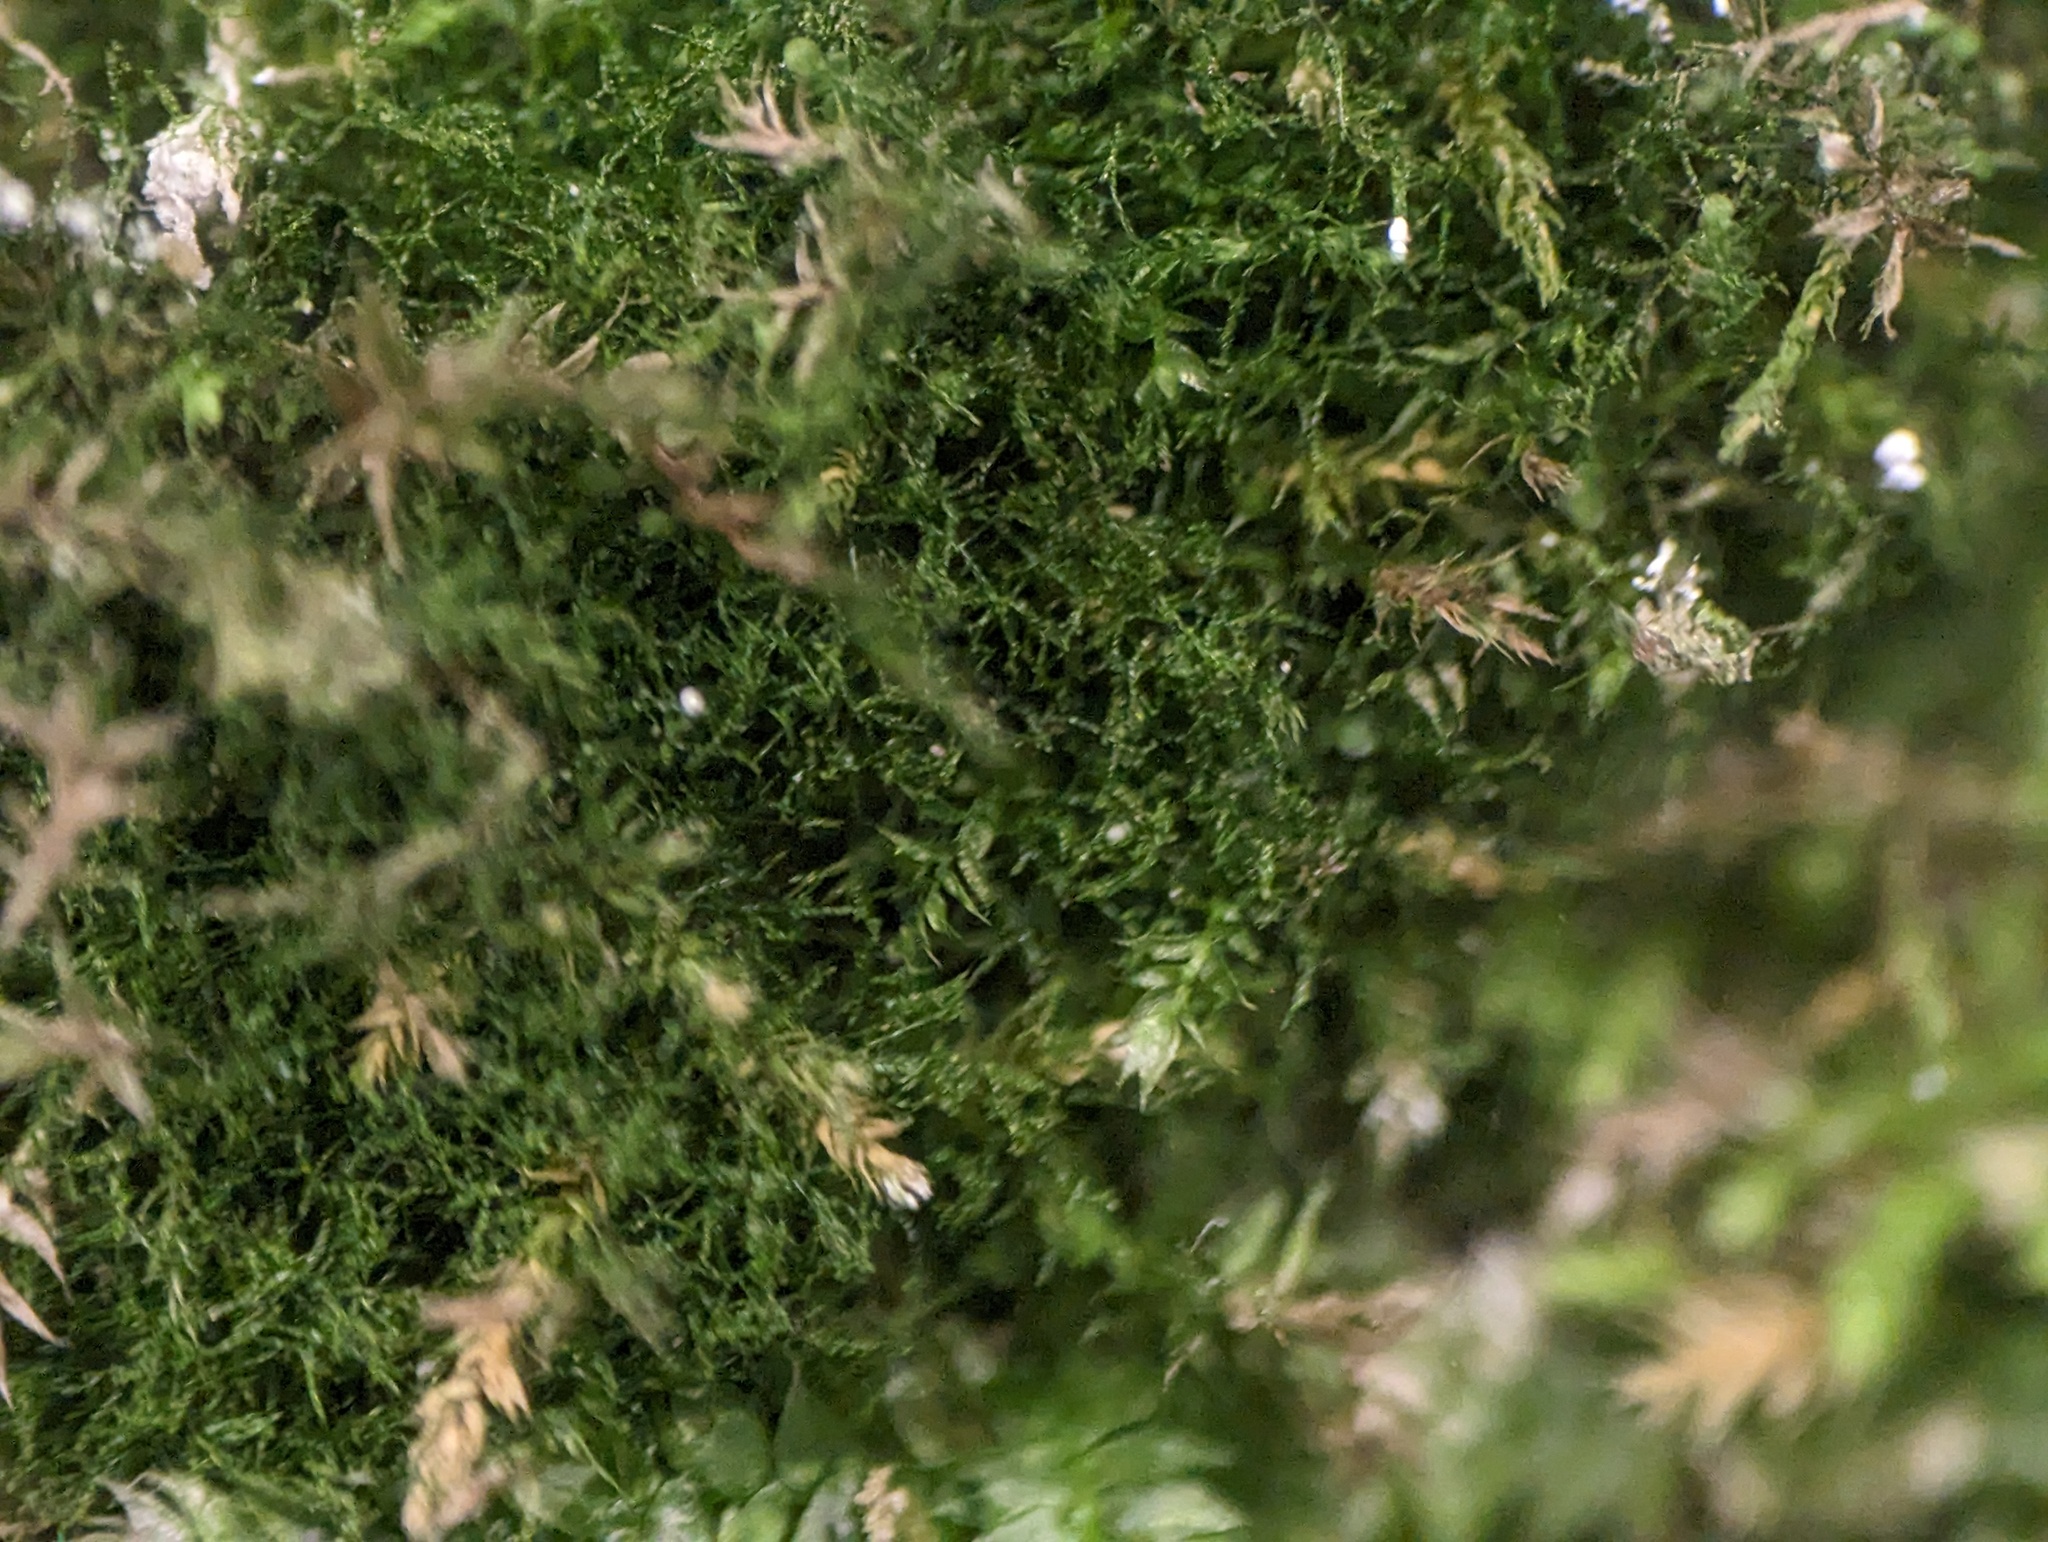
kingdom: Plantae
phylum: Tracheophyta
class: Polypodiopsida
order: Hymenophyllales
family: Hymenophyllaceae
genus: Crepidomanes
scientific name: Crepidomanes intricatum
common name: Weft fern
